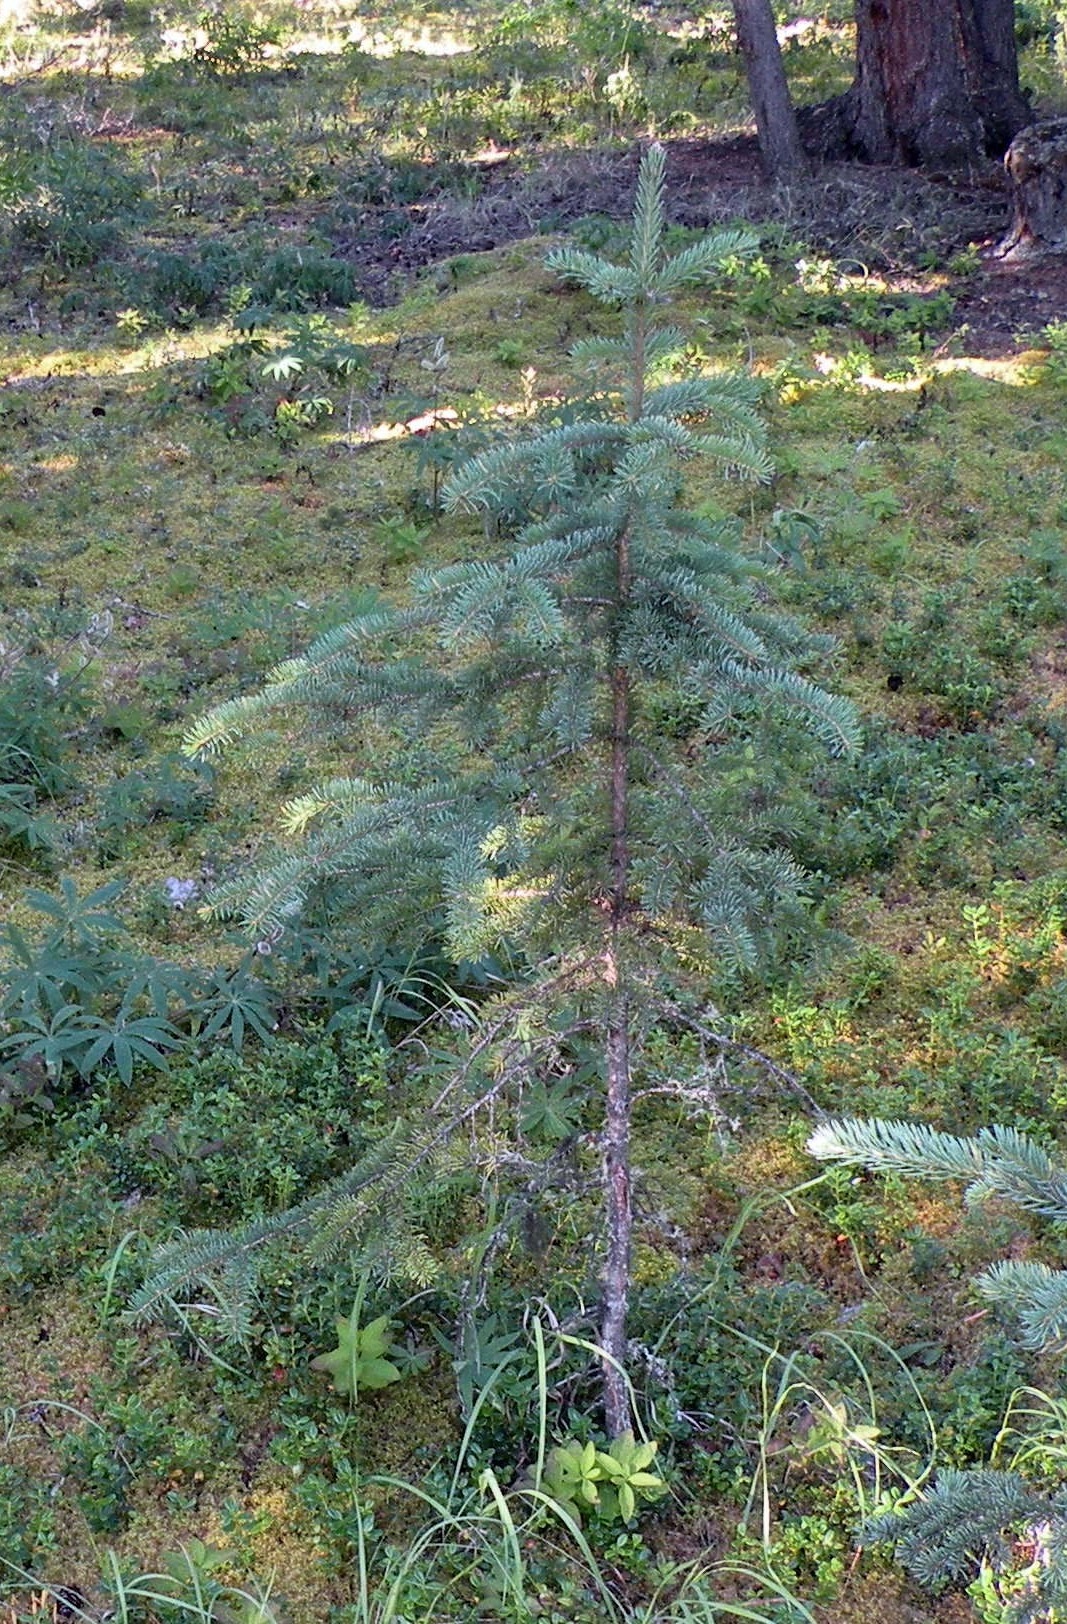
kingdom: Plantae
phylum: Tracheophyta
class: Pinopsida
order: Pinales
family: Pinaceae
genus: Picea
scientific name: Picea glauca
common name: White spruce
